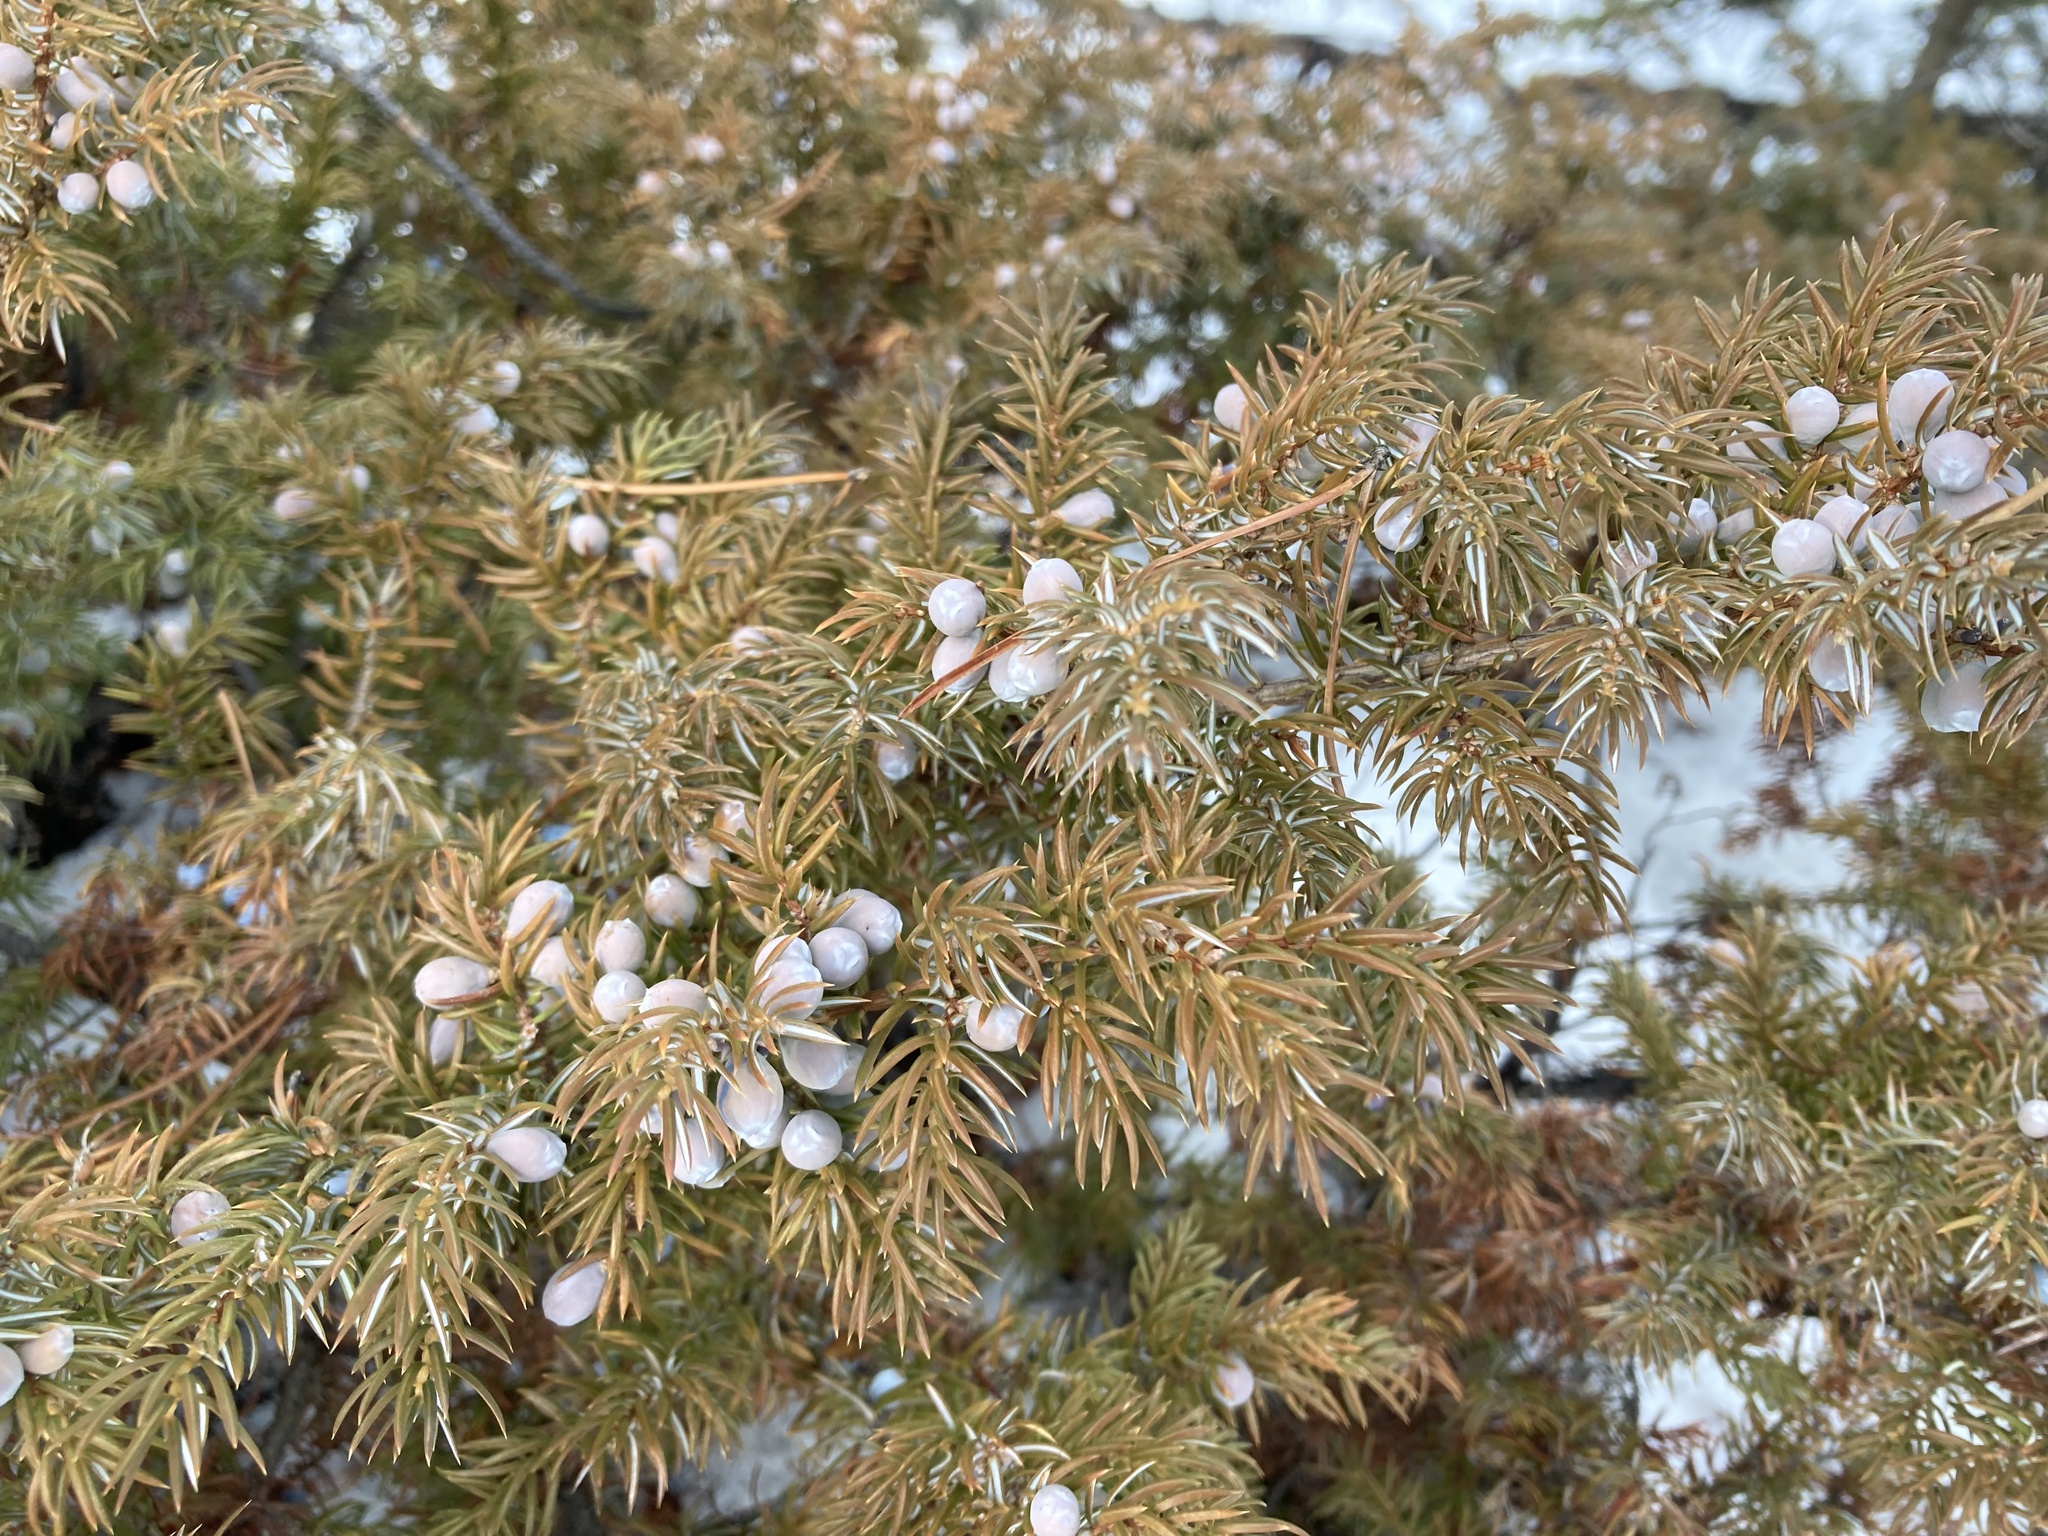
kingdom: Plantae
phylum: Tracheophyta
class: Pinopsida
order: Pinales
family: Cupressaceae
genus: Juniperus
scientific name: Juniperus communis
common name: Common juniper
